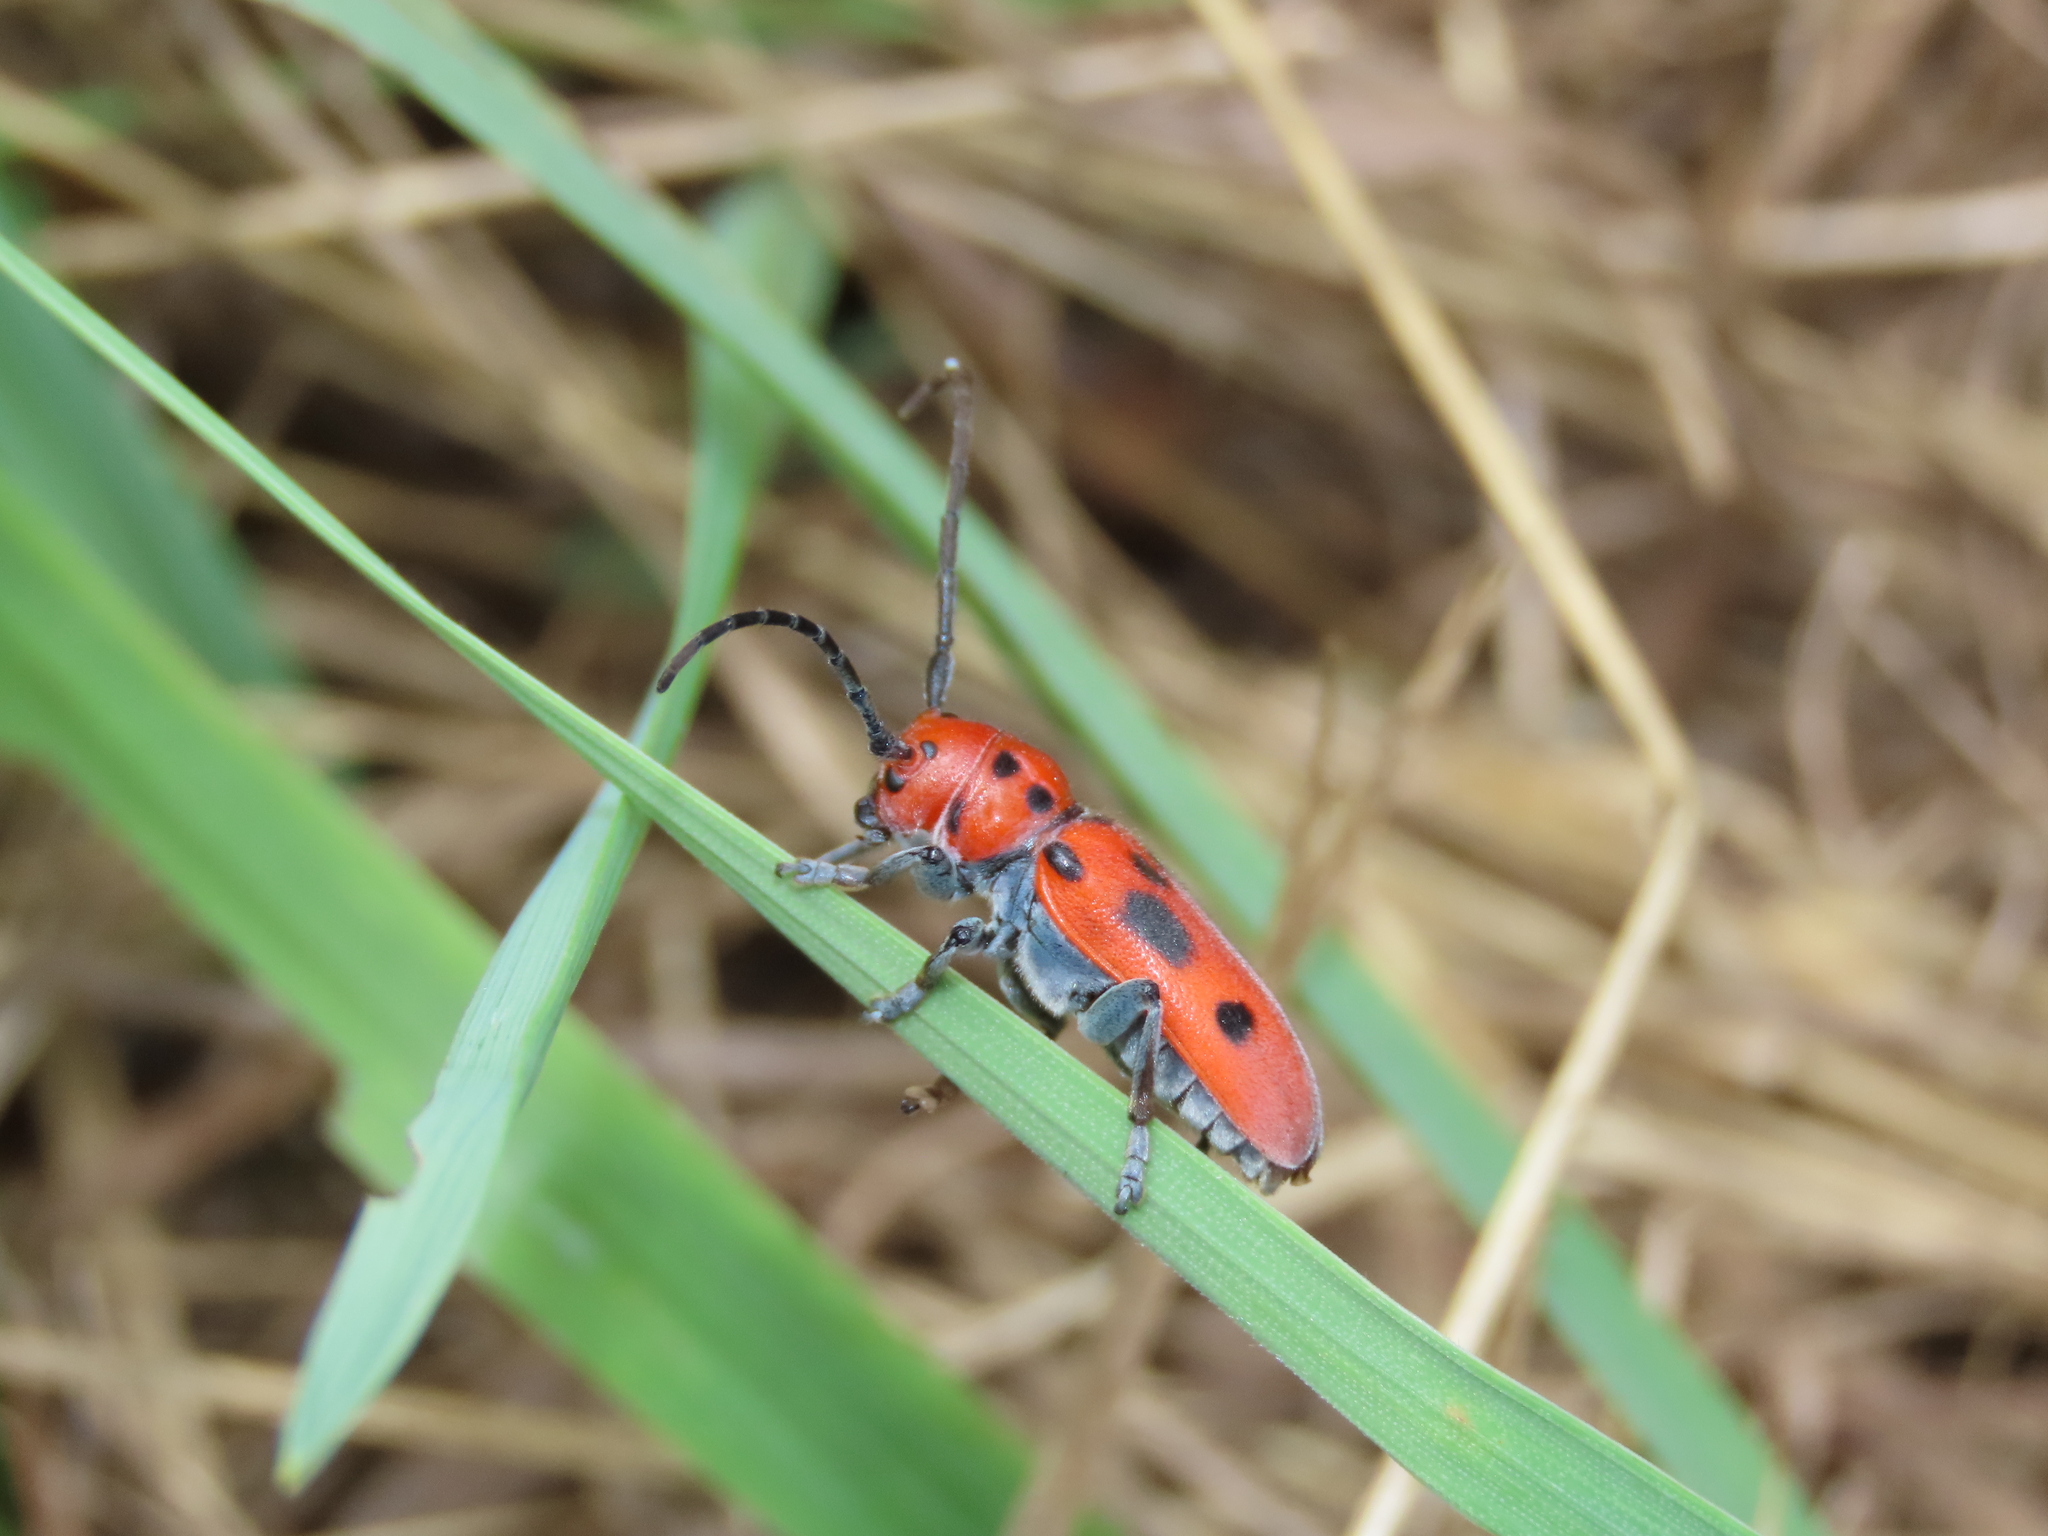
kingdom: Animalia
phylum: Arthropoda
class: Insecta
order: Coleoptera
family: Cerambycidae
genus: Tetraopes
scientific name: Tetraopes tetrophthalmus
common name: Red milkweed beetle
